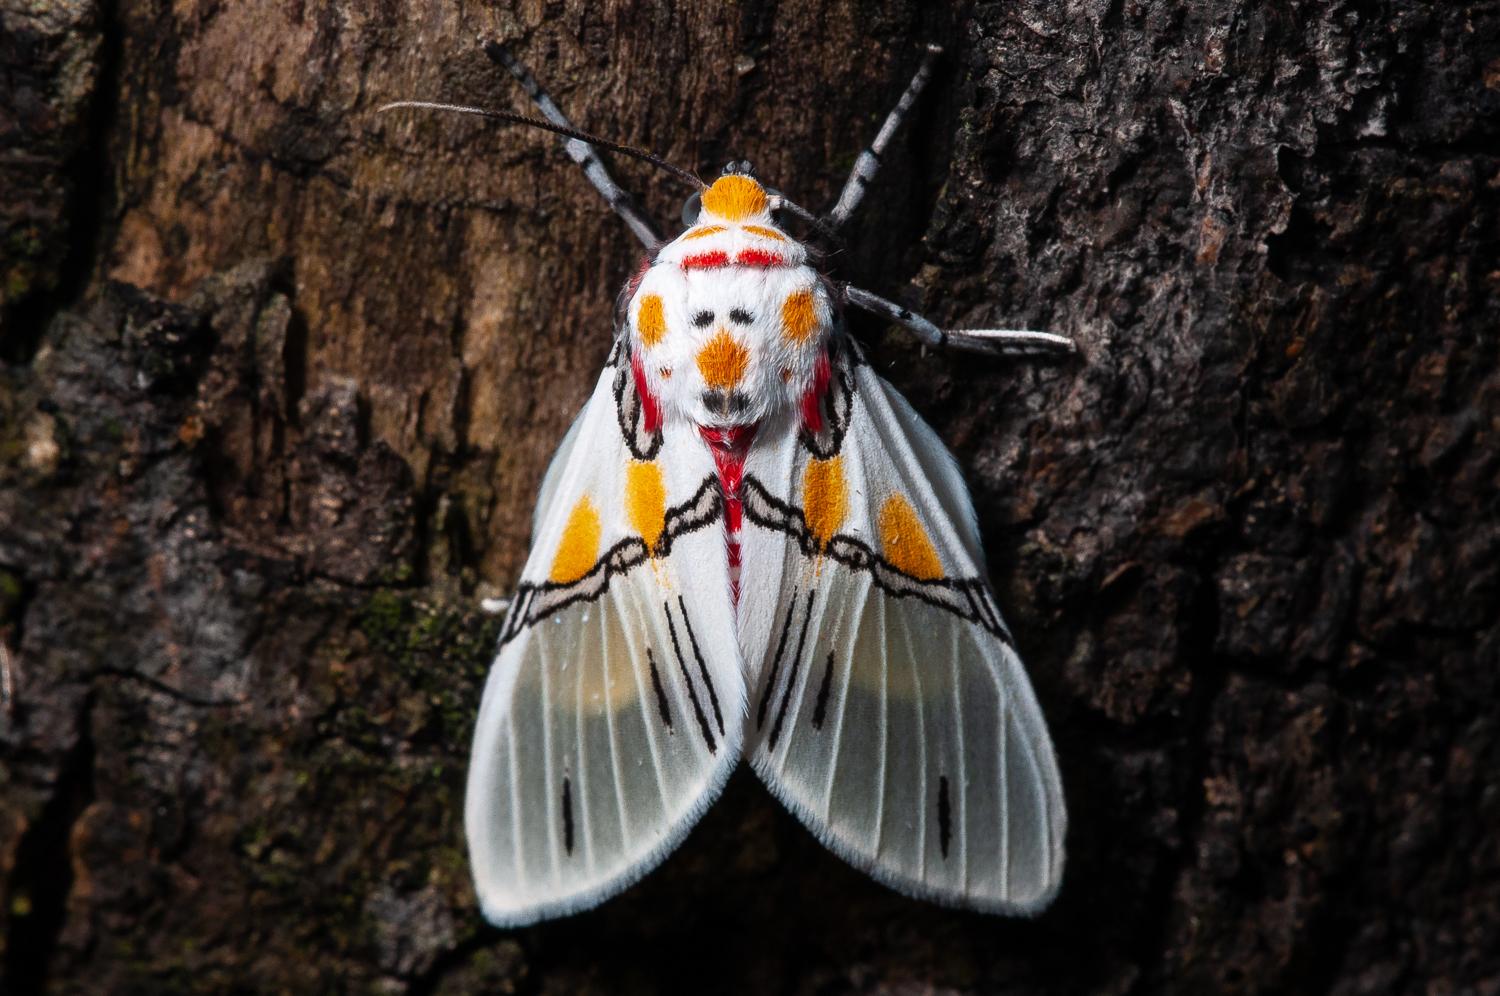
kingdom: Animalia
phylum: Arthropoda
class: Insecta
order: Lepidoptera
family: Erebidae
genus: Idalus
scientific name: Idalus crinis
